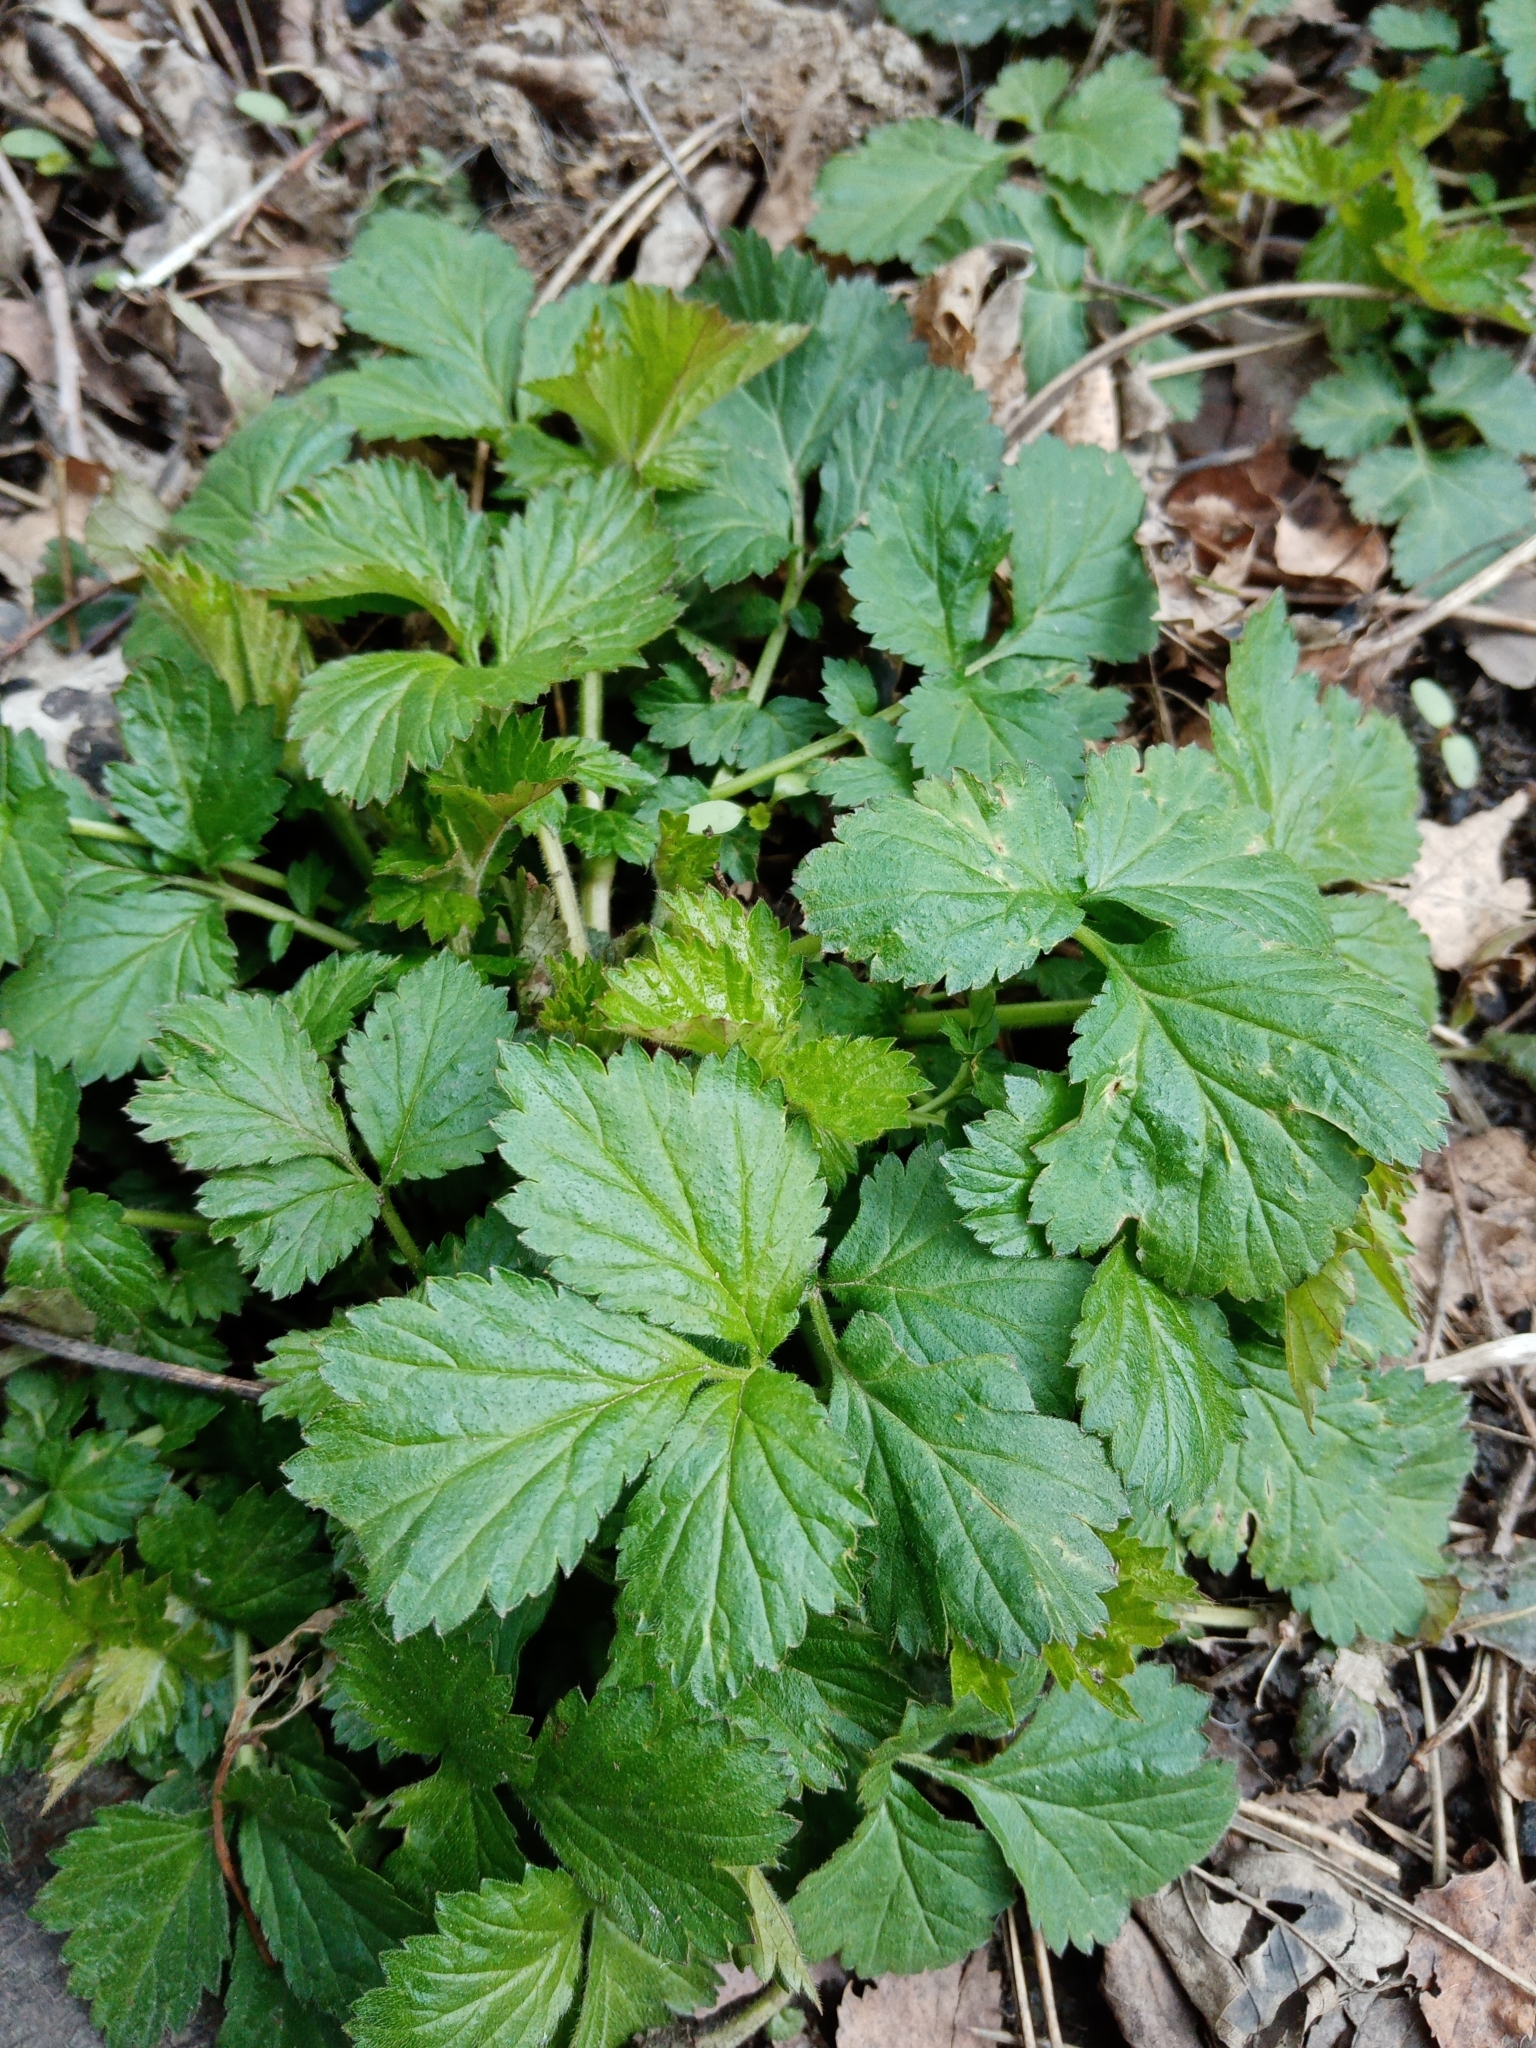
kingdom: Plantae
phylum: Tracheophyta
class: Magnoliopsida
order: Rosales
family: Rosaceae
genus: Geum
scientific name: Geum urbanum
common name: Wood avens
